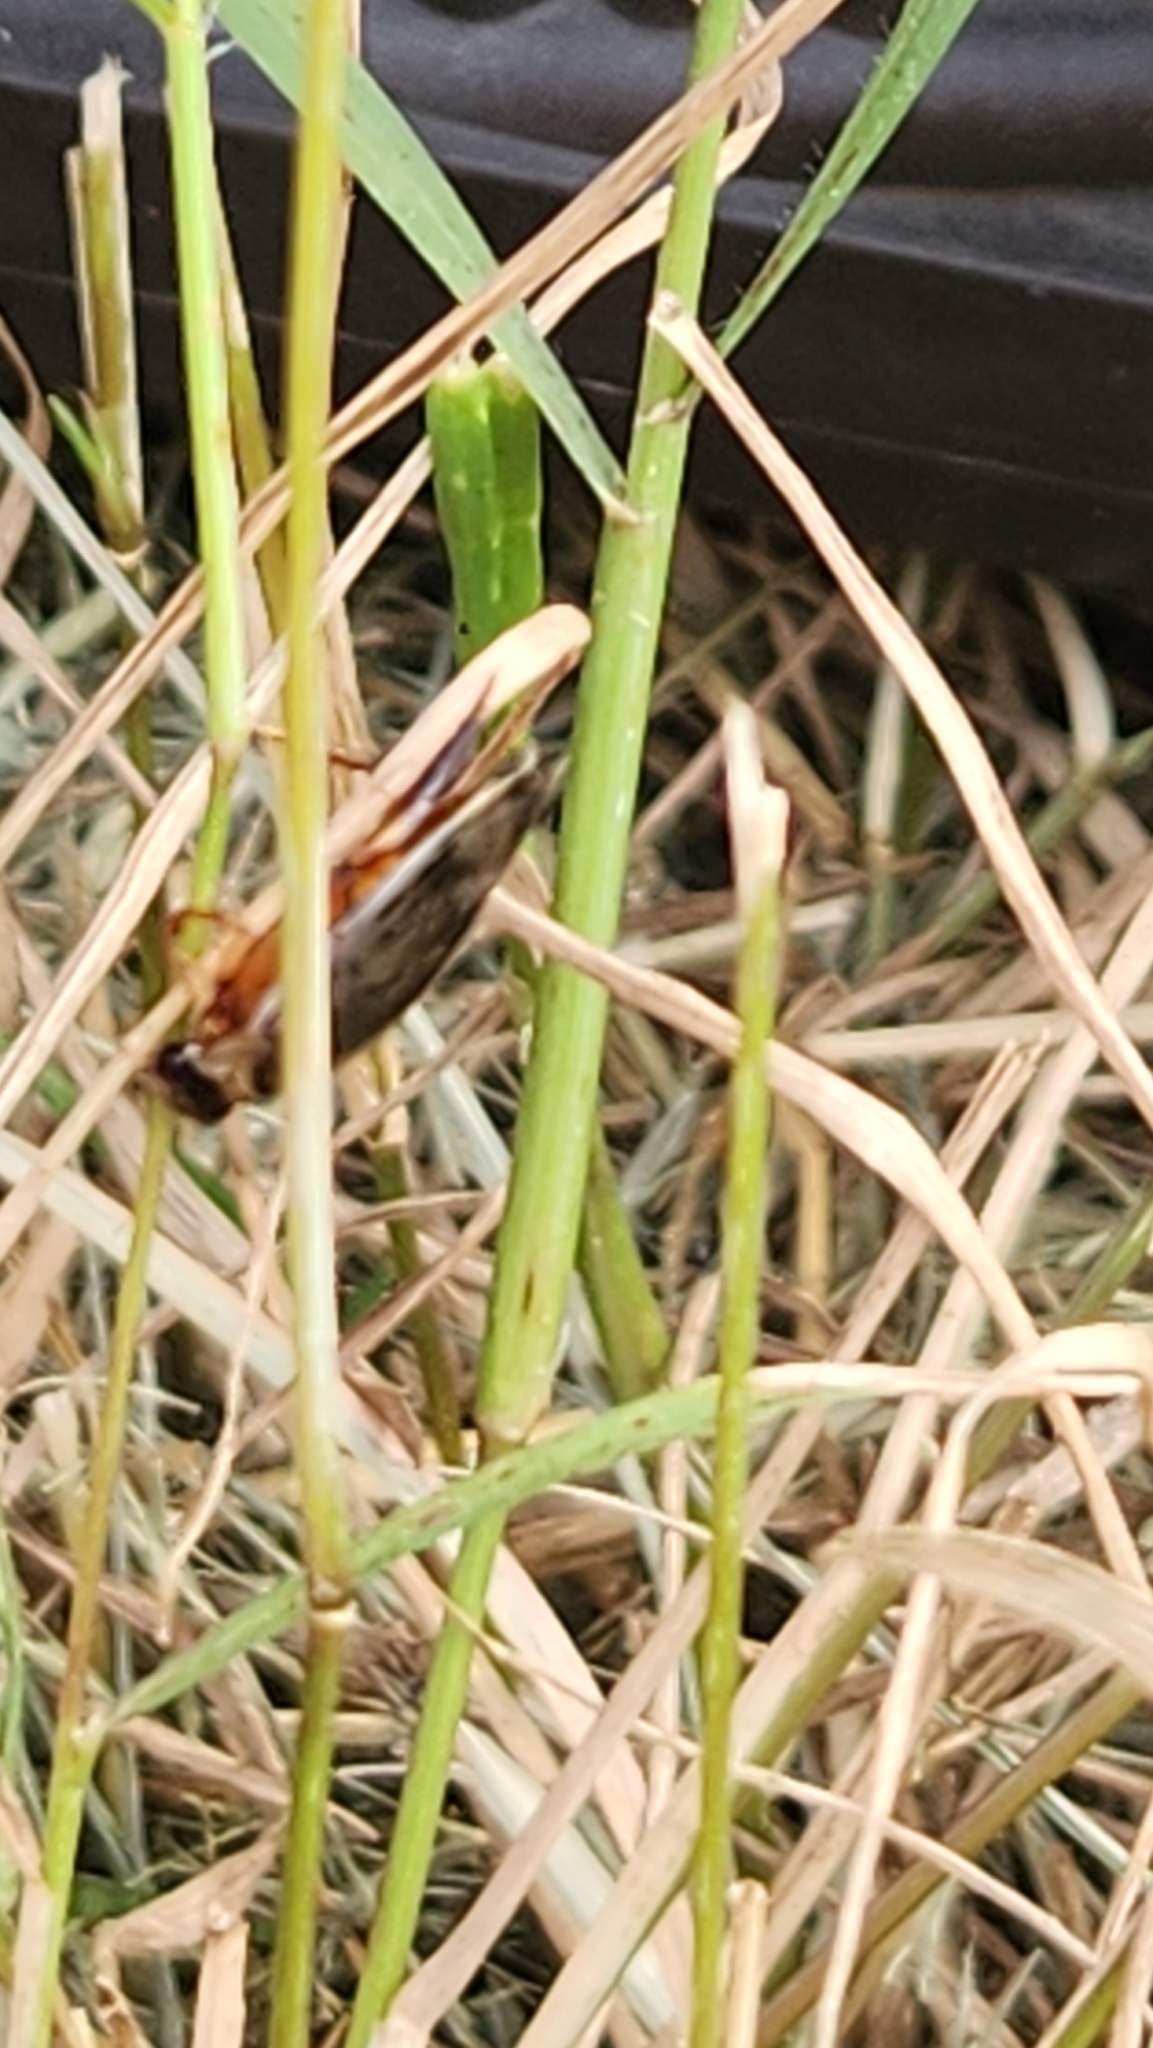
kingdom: Animalia
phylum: Arthropoda
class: Insecta
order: Coleoptera
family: Dytiscidae
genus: Thermonectus
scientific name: Thermonectus nigrofasciatus
